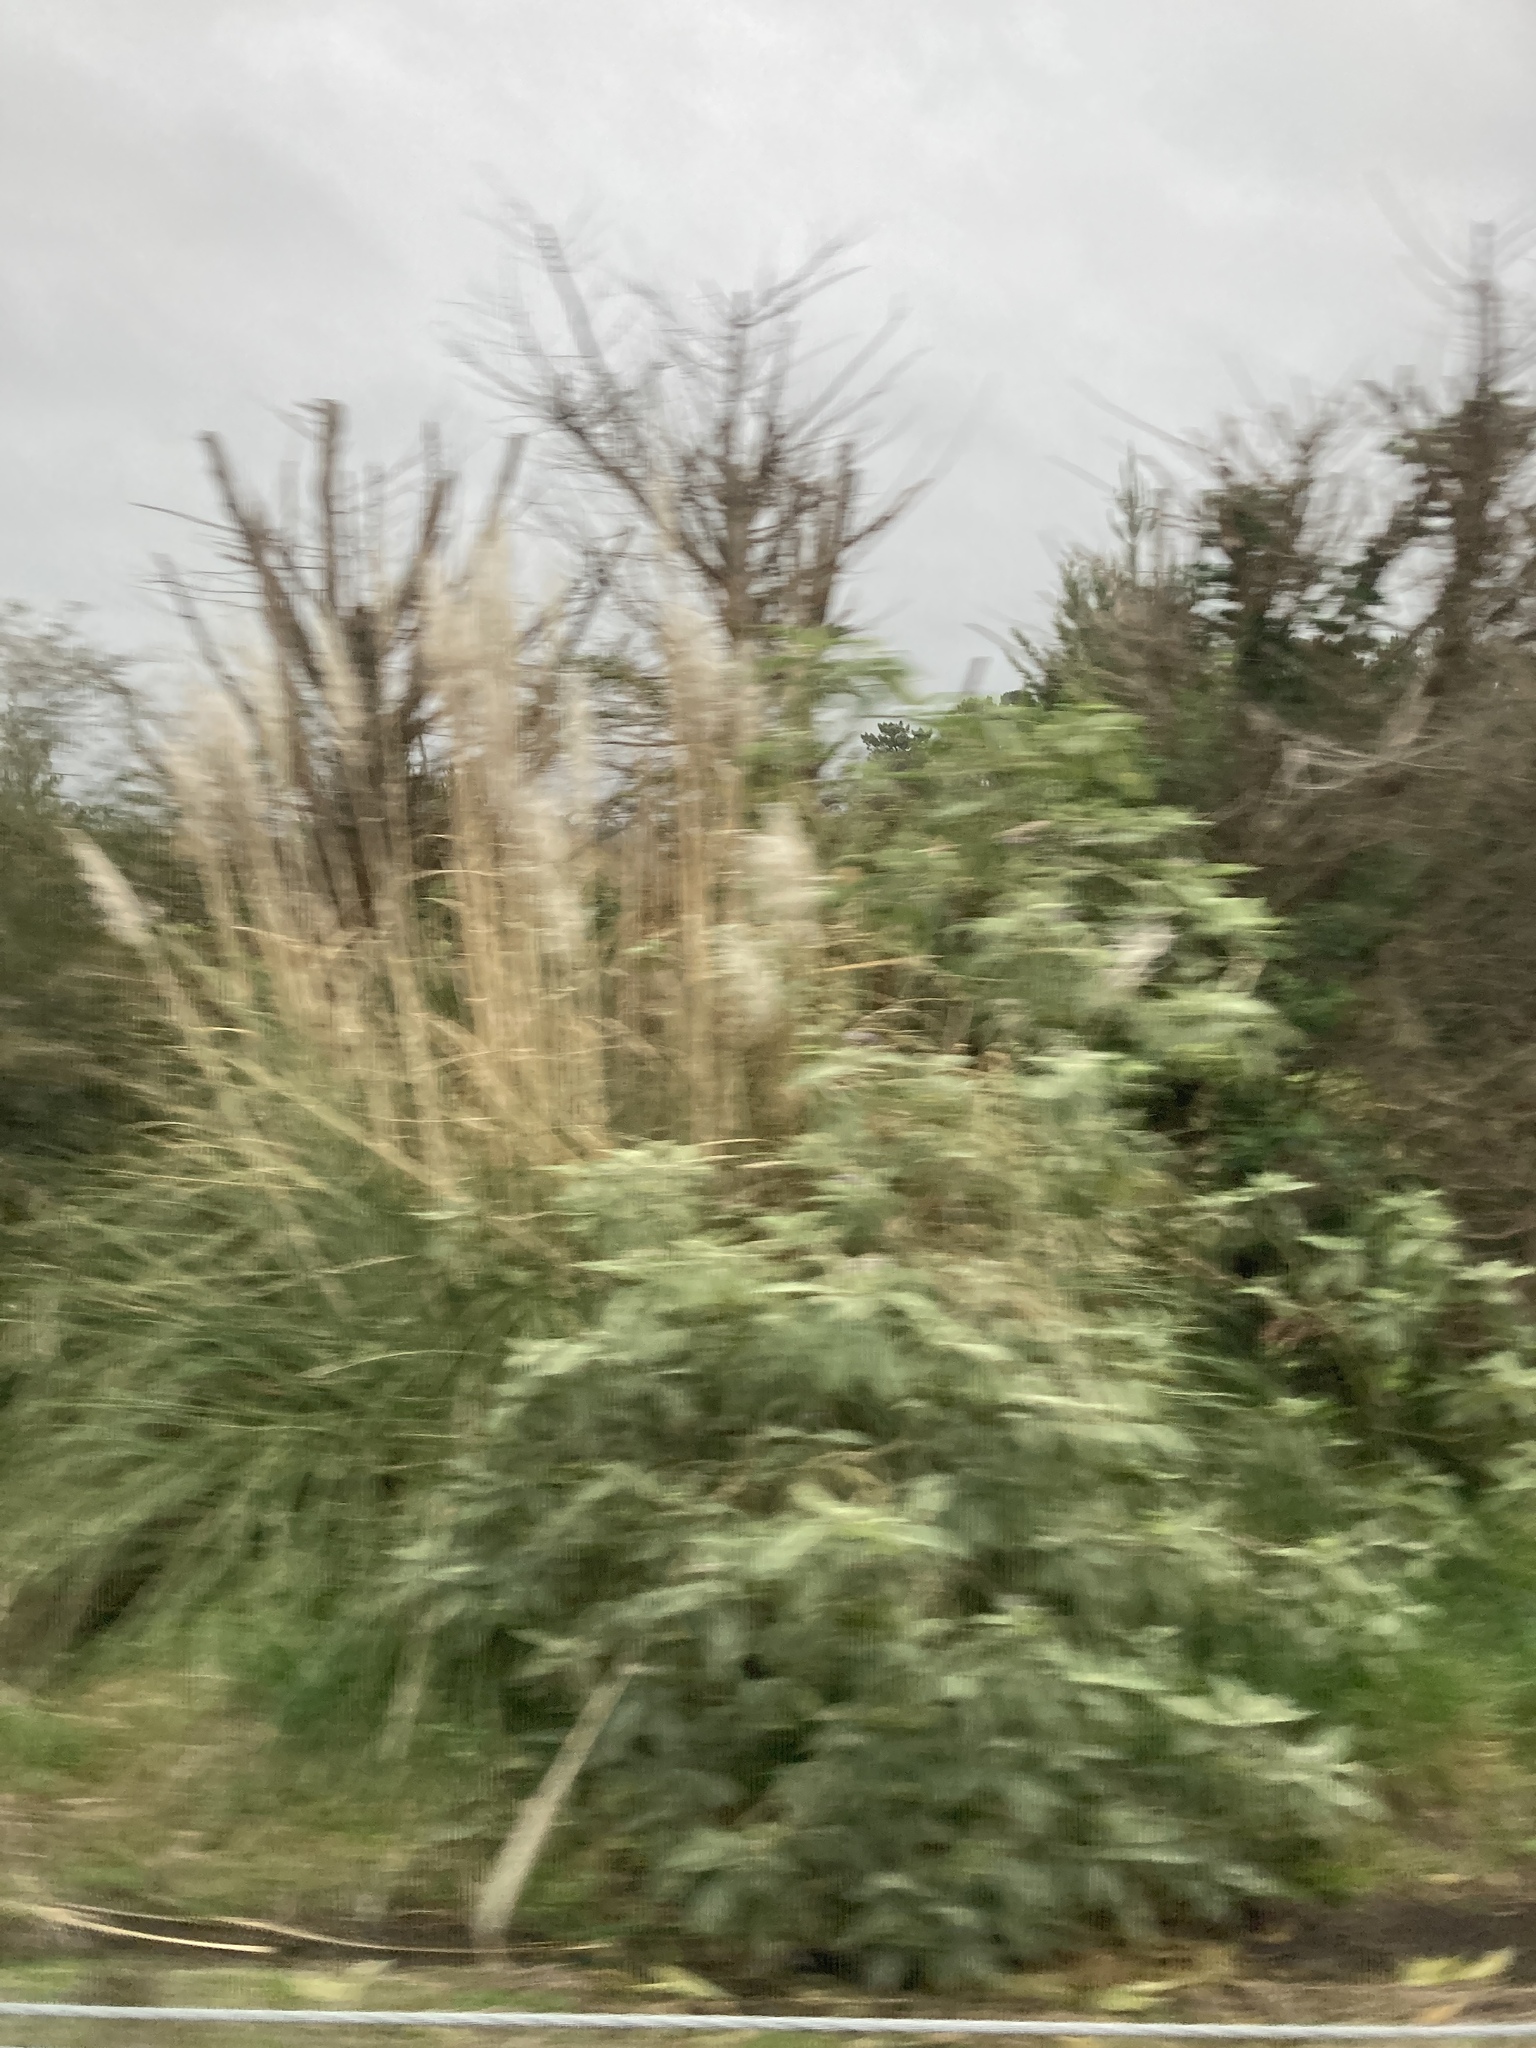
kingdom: Plantae
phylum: Tracheophyta
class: Magnoliopsida
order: Solanales
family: Solanaceae
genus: Solanum
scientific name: Solanum mauritianum
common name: Earleaf nightshade
